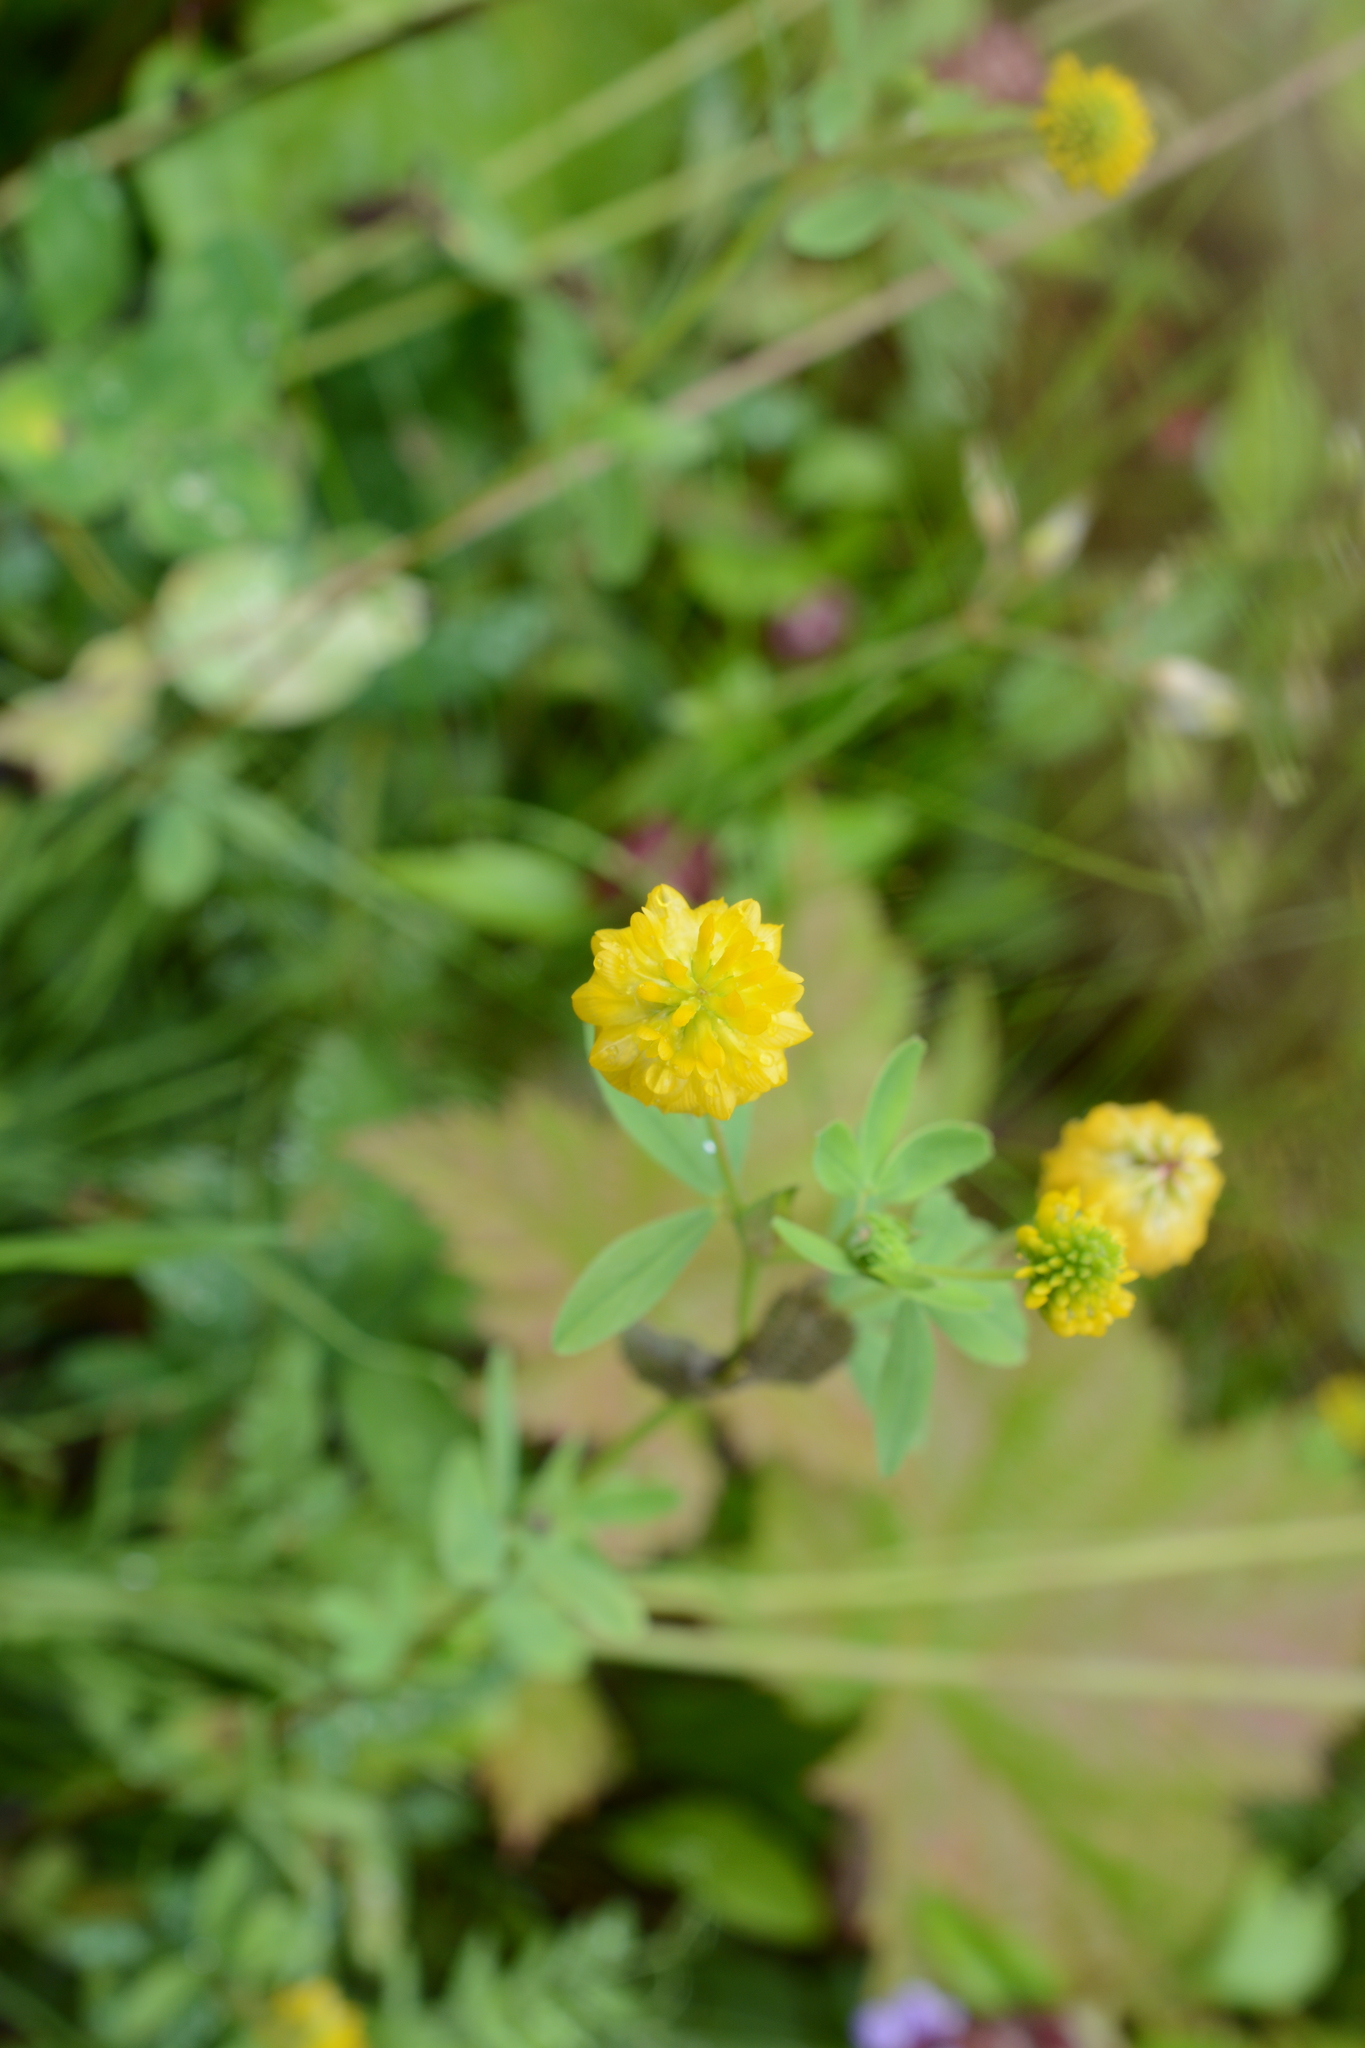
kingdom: Plantae
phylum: Tracheophyta
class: Magnoliopsida
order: Fabales
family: Fabaceae
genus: Trifolium
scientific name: Trifolium aureum
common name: Golden clover
